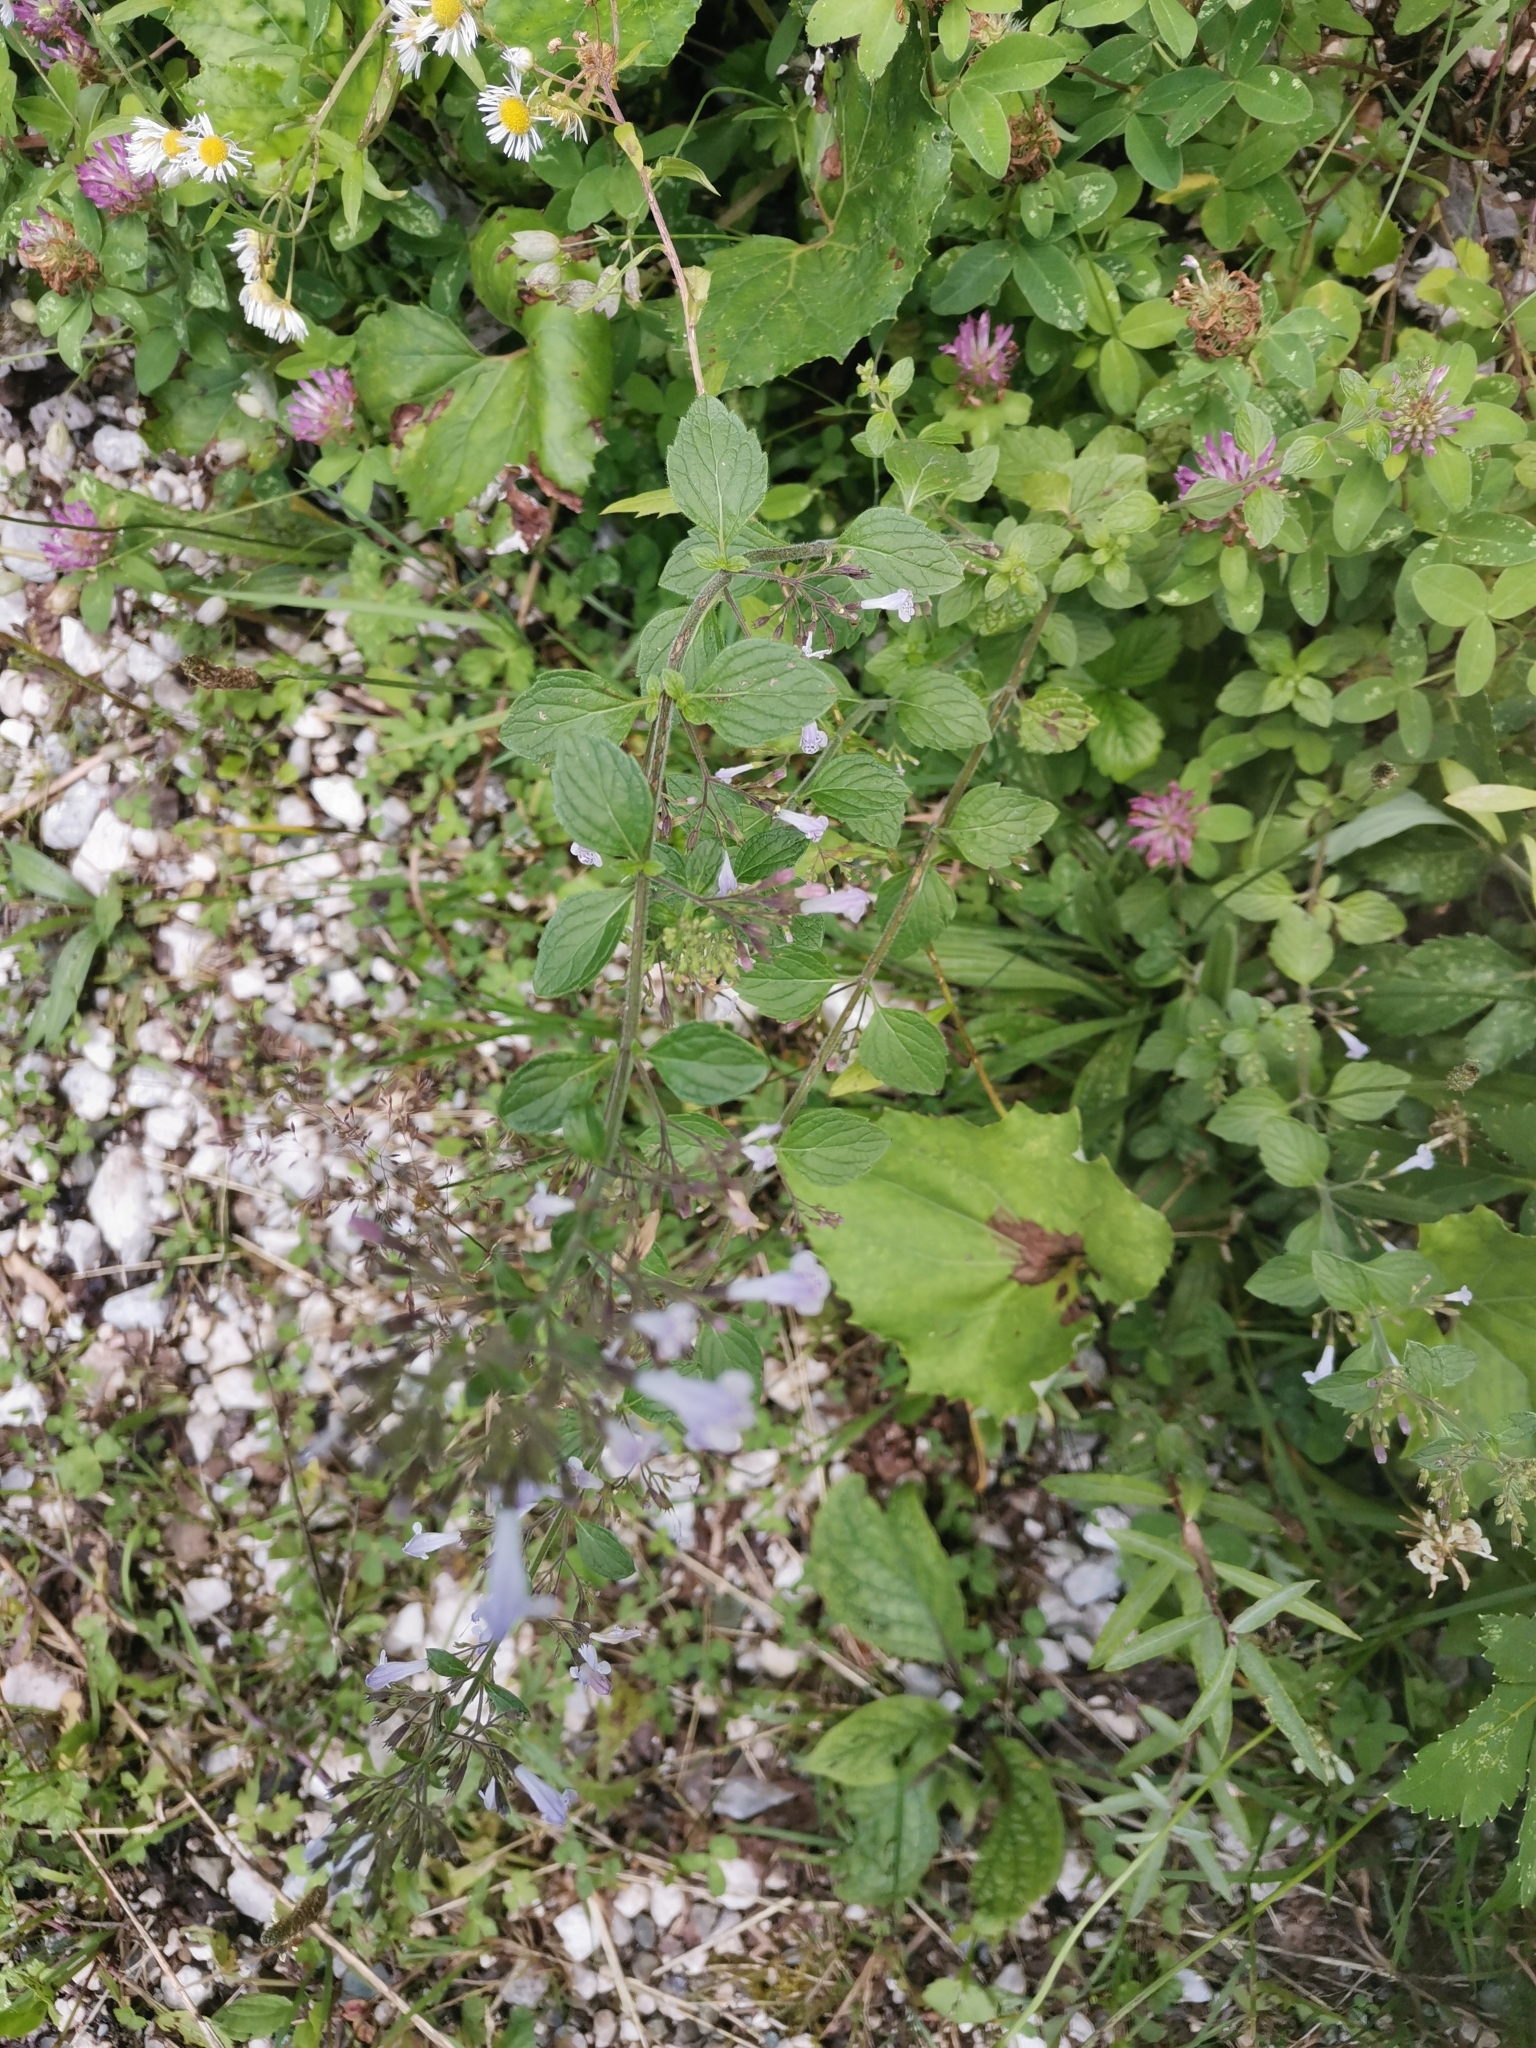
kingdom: Plantae
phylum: Tracheophyta
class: Magnoliopsida
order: Fabales
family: Fabaceae
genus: Trifolium
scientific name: Trifolium medium
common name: Zigzag clover
